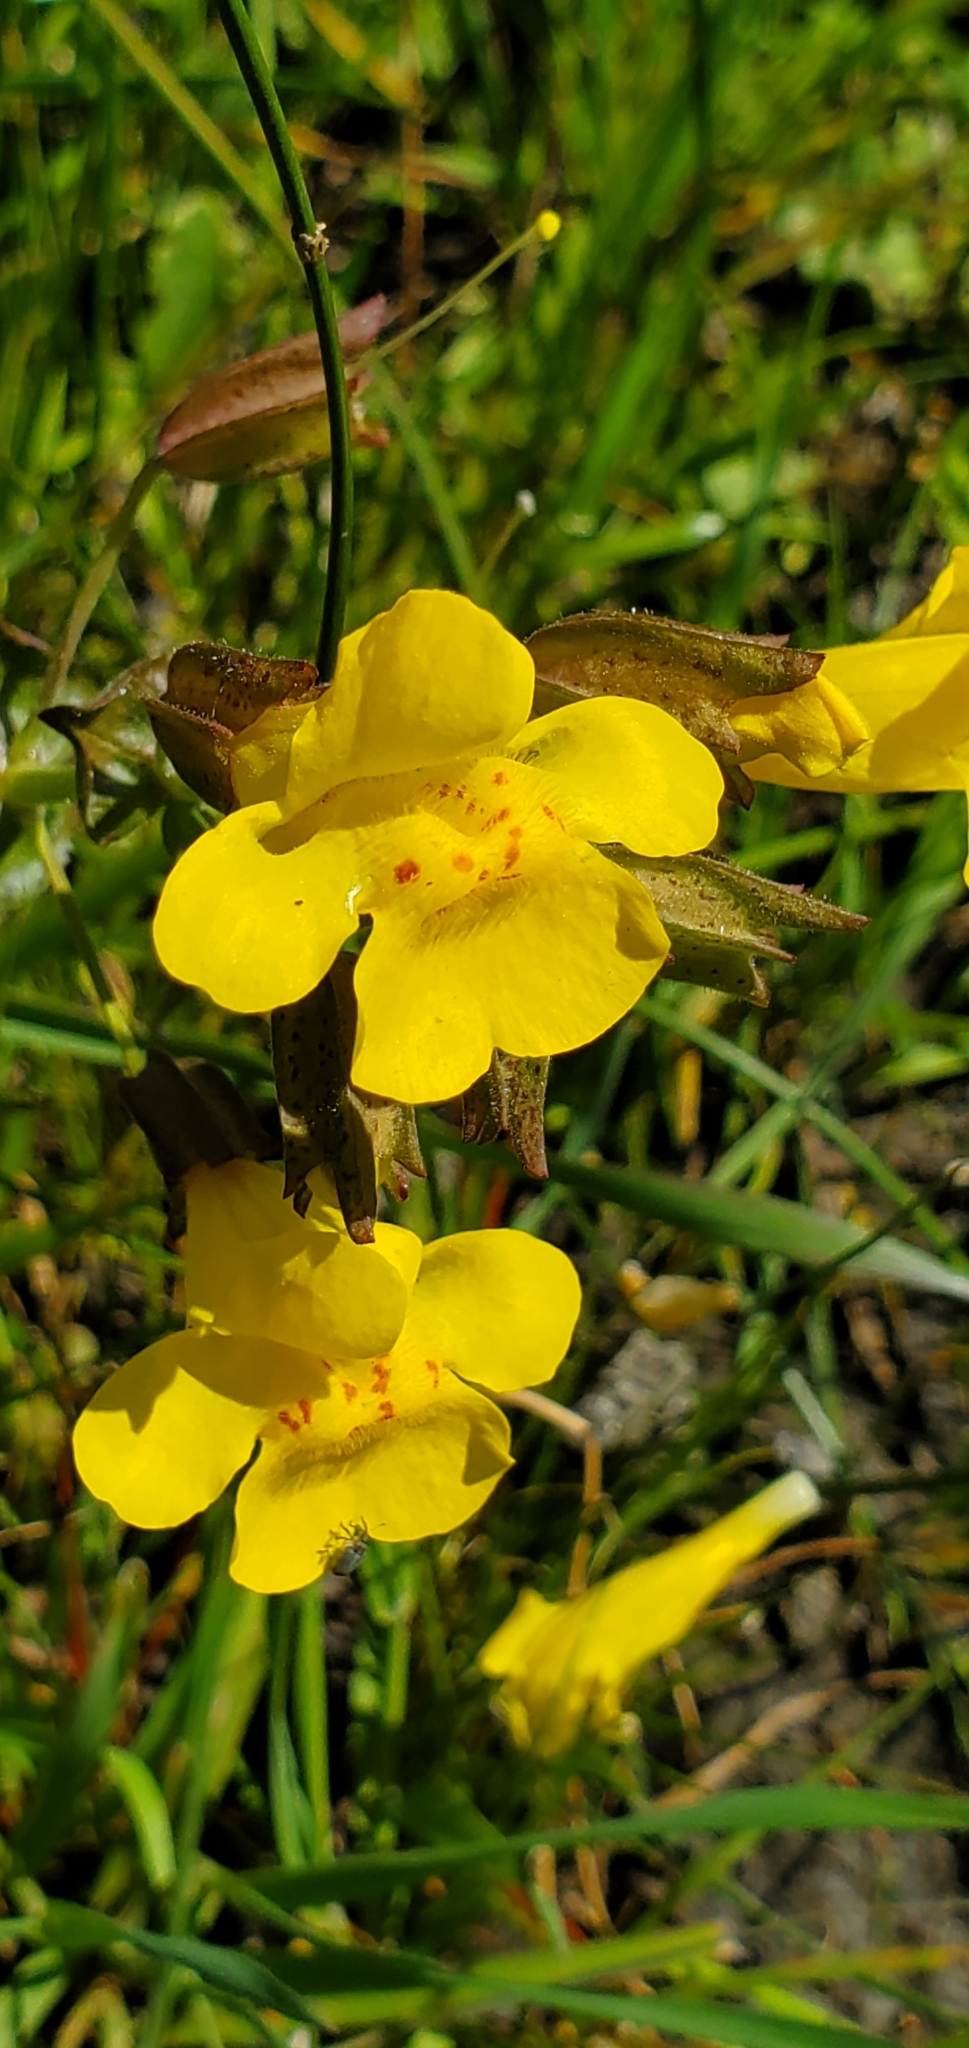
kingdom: Plantae
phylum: Tracheophyta
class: Magnoliopsida
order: Lamiales
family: Phrymaceae
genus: Erythranthe
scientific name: Erythranthe guttata
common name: Monkeyflower
